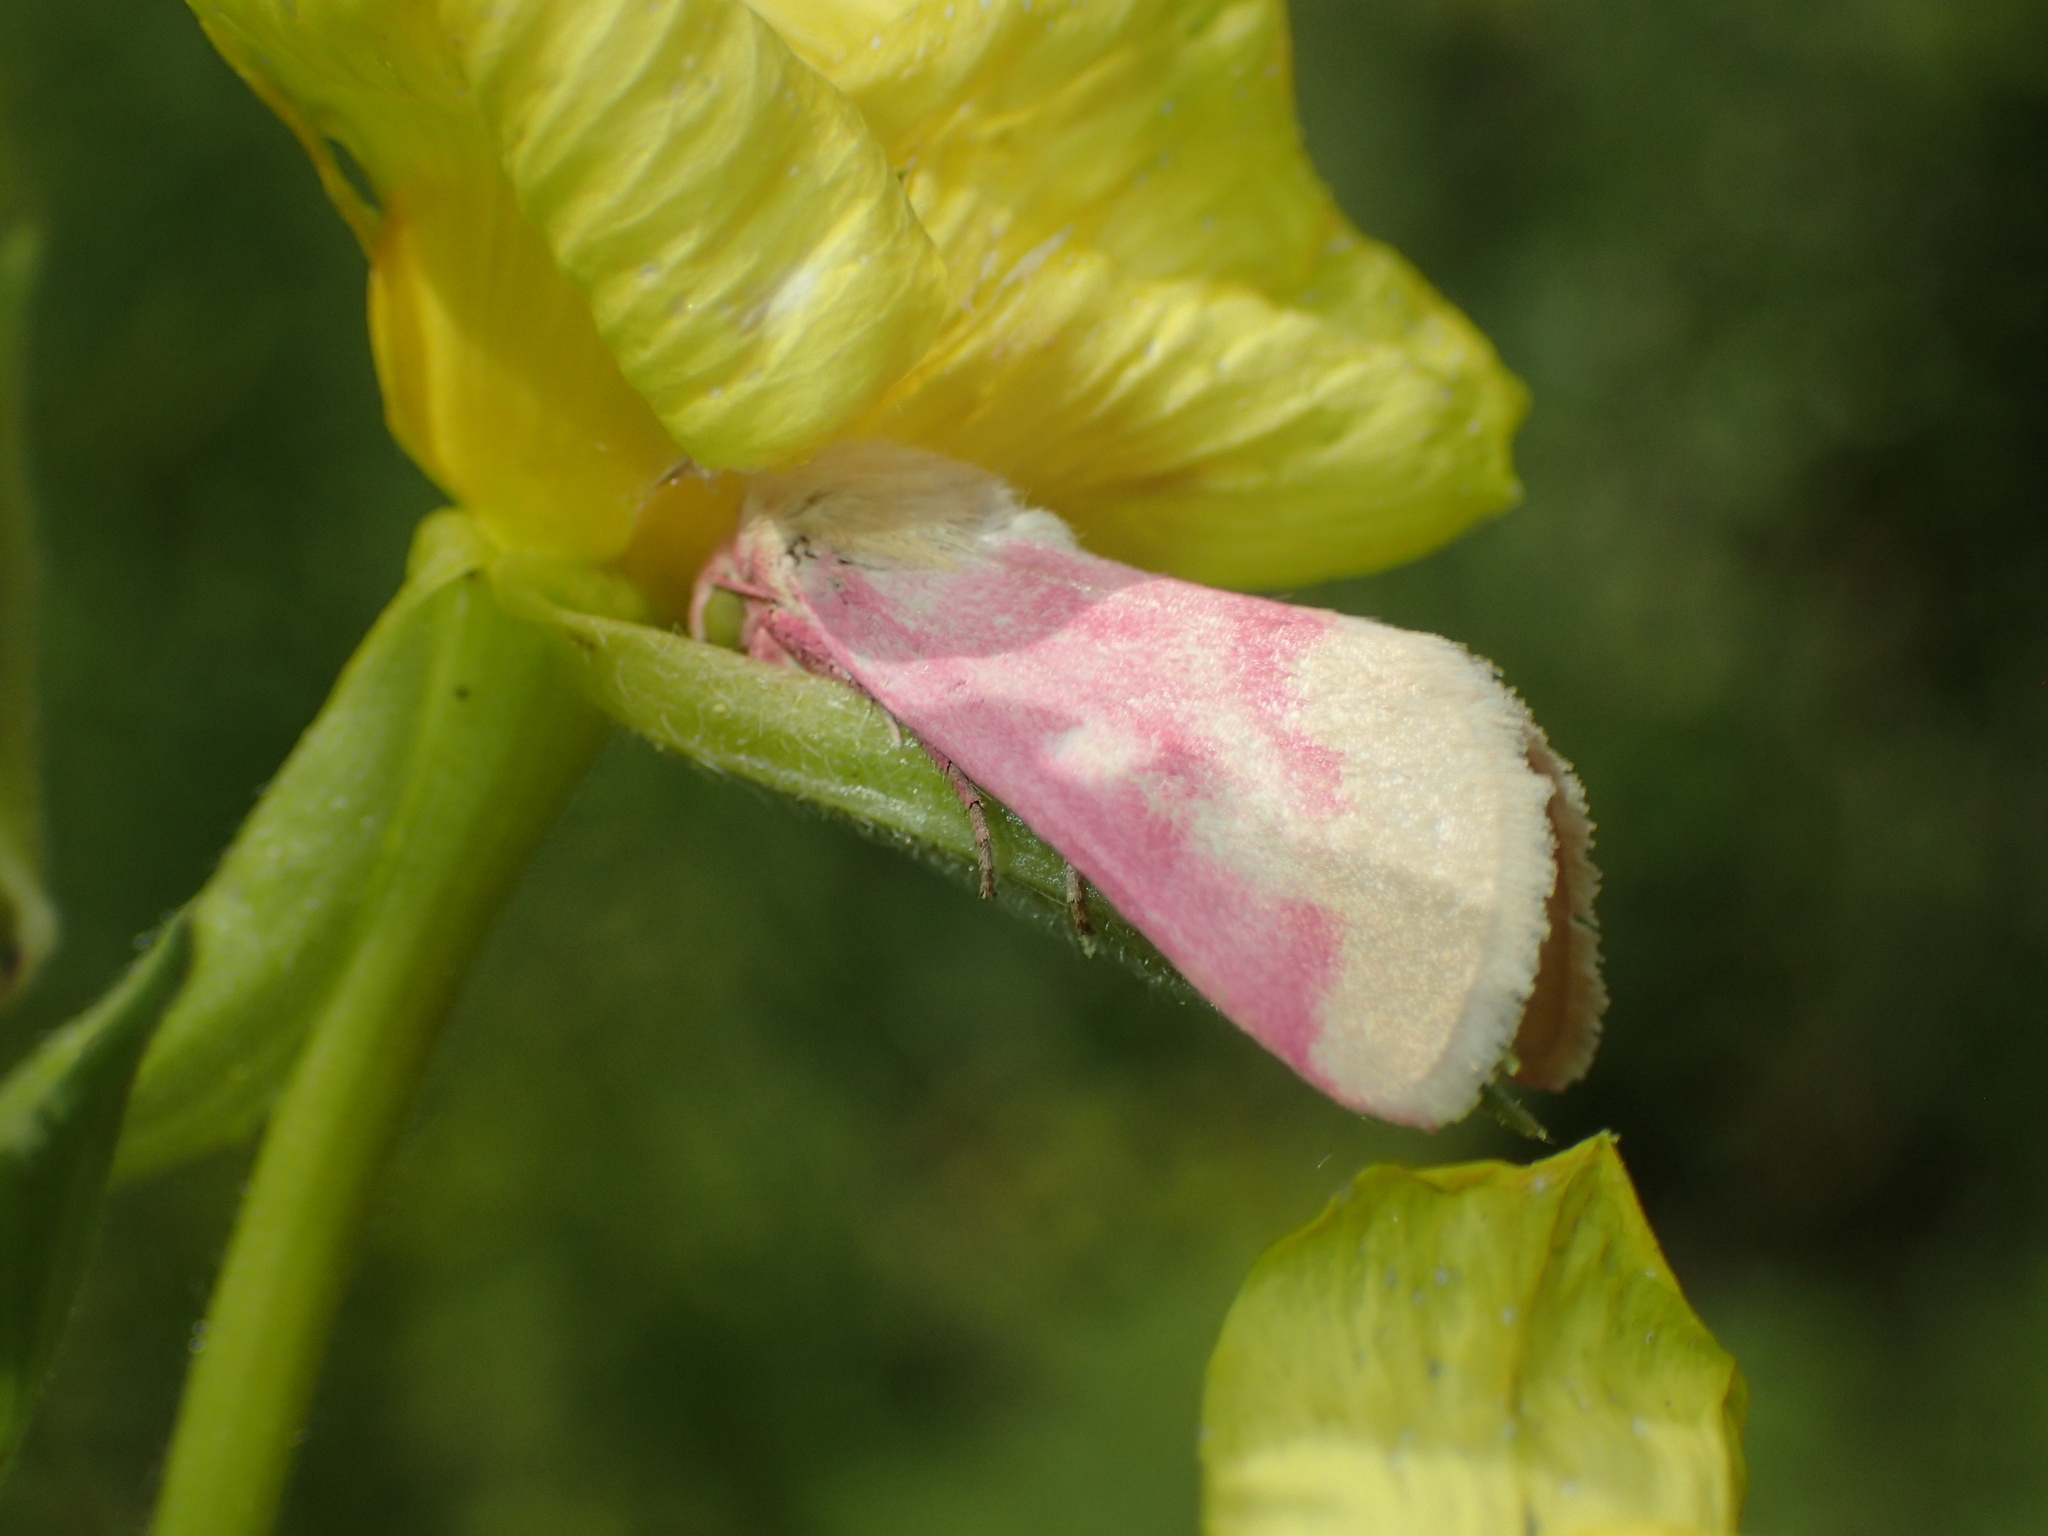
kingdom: Animalia
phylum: Arthropoda
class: Insecta
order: Lepidoptera
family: Noctuidae
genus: Schinia
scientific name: Schinia florida
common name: Primrose moth
